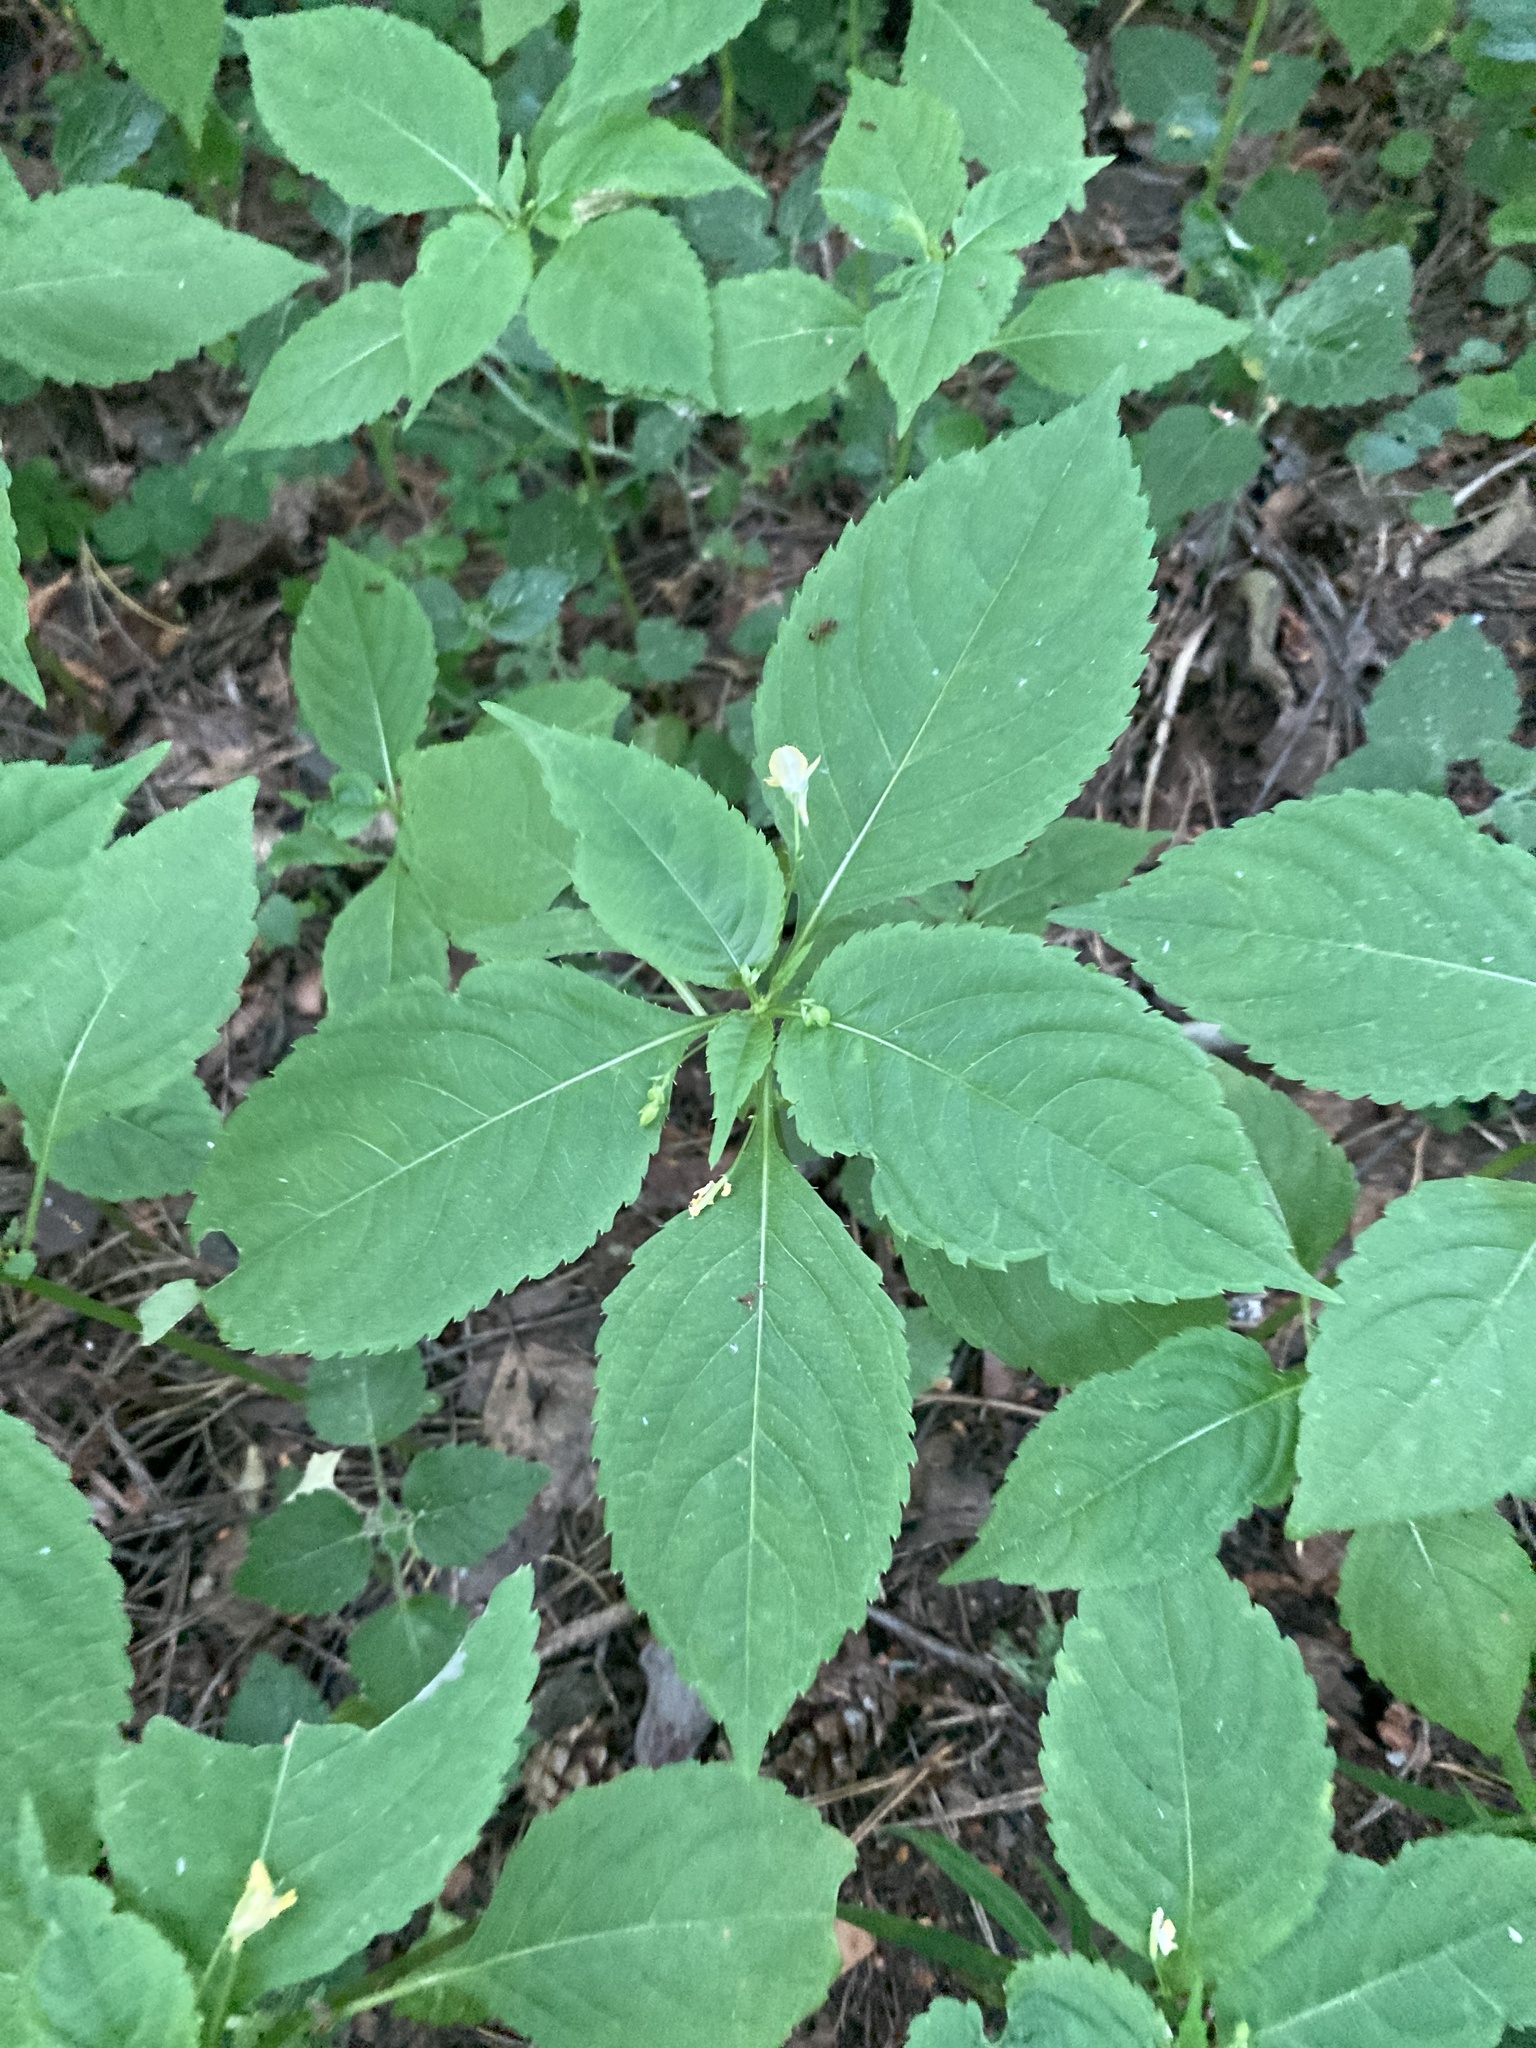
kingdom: Plantae
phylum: Tracheophyta
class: Magnoliopsida
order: Ericales
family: Balsaminaceae
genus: Impatiens
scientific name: Impatiens parviflora
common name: Small balsam
